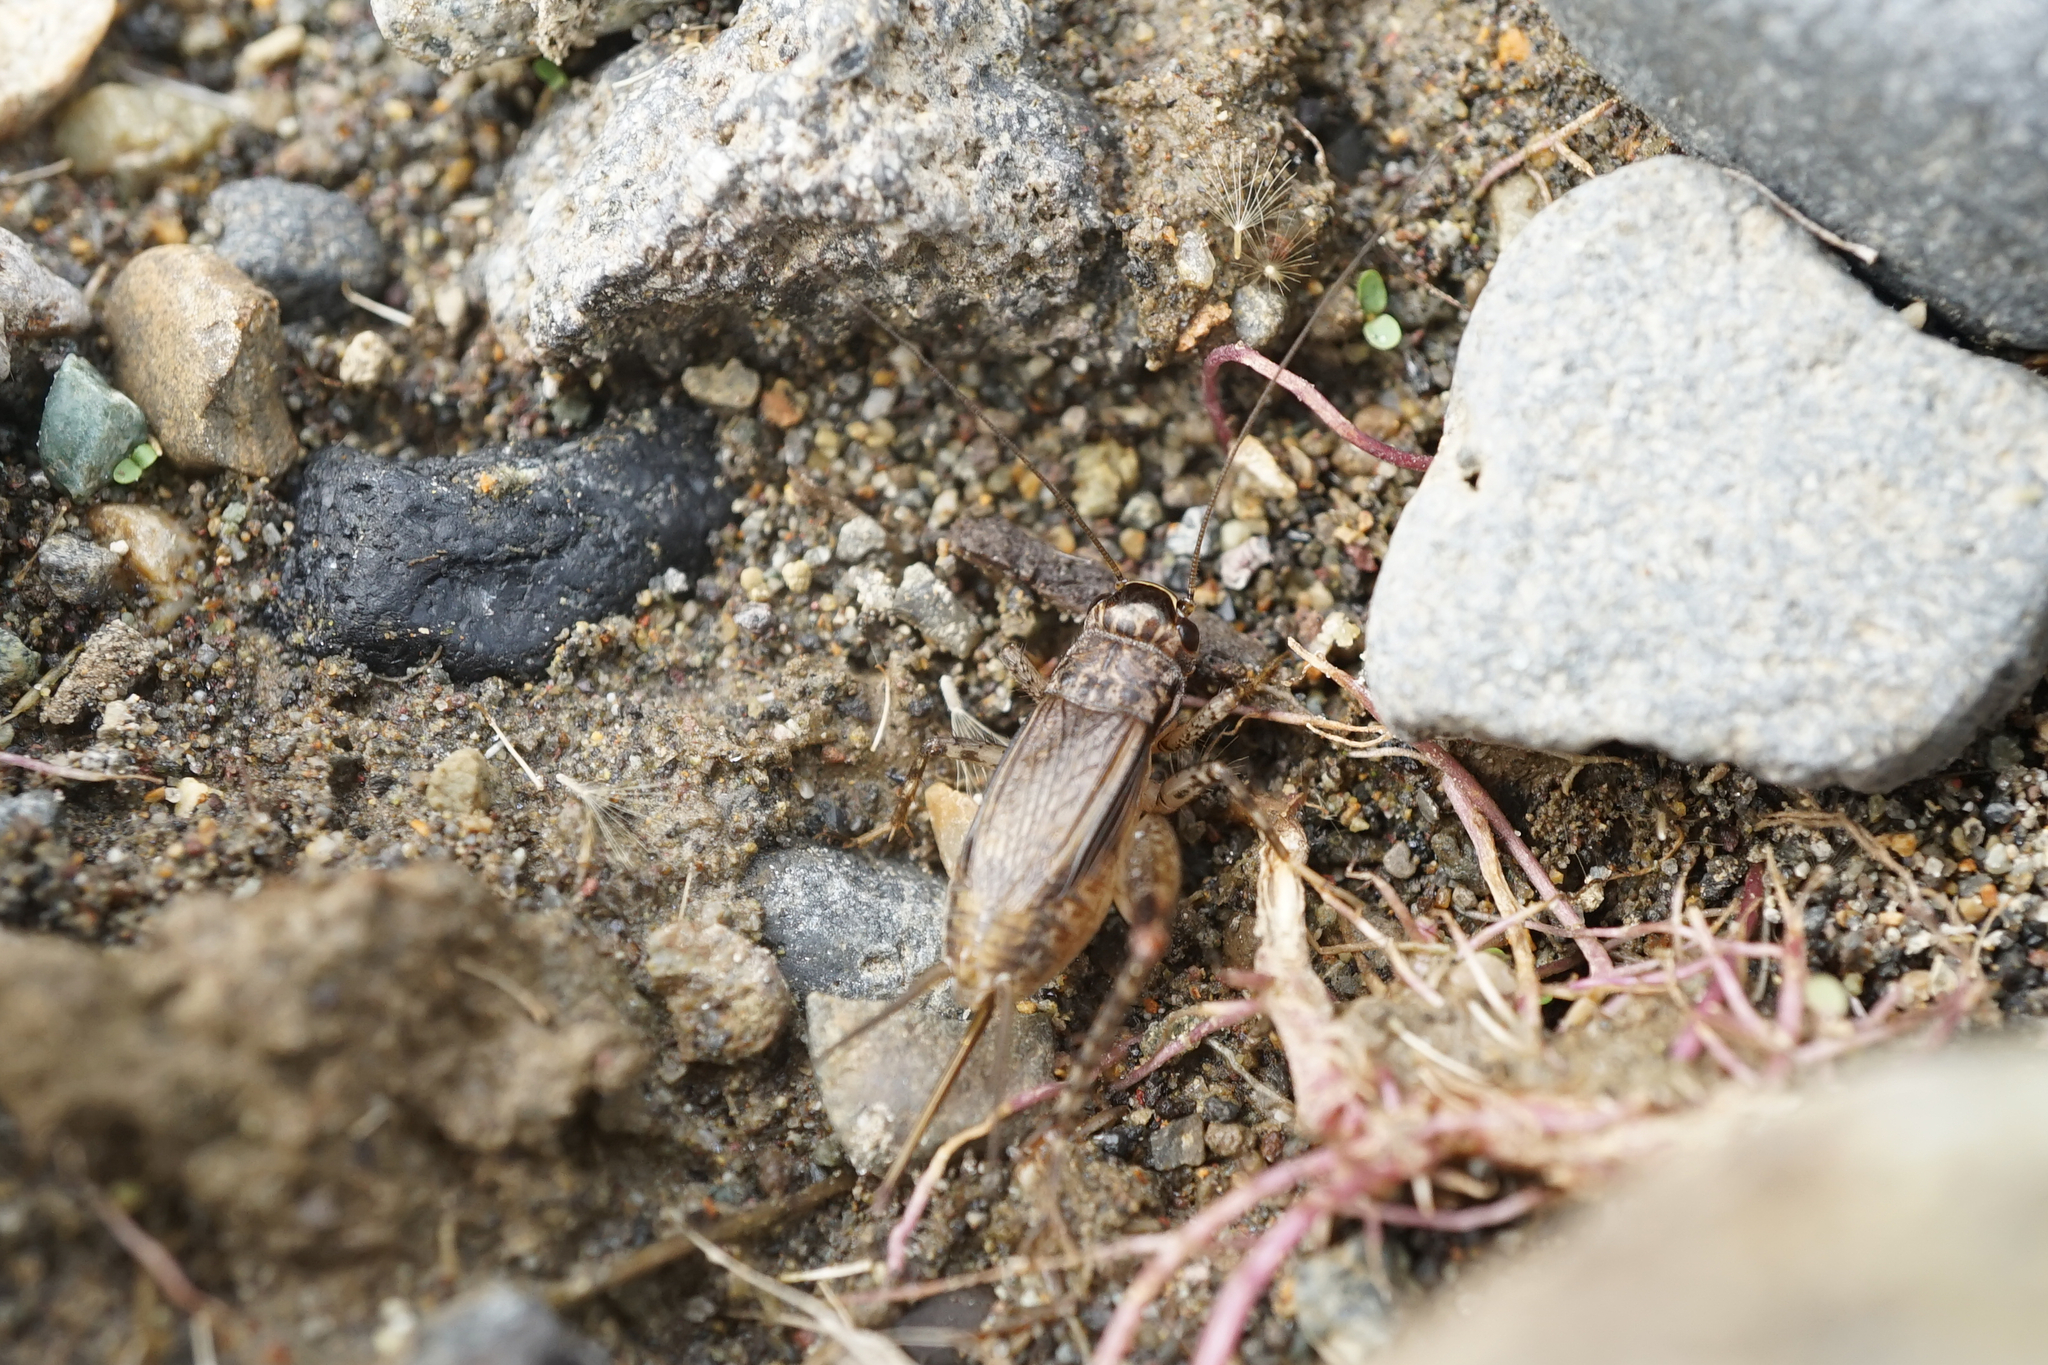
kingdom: Animalia
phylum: Arthropoda
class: Insecta
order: Orthoptera
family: Gryllidae
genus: Loxoblemmus
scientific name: Loxoblemmus arietulus
